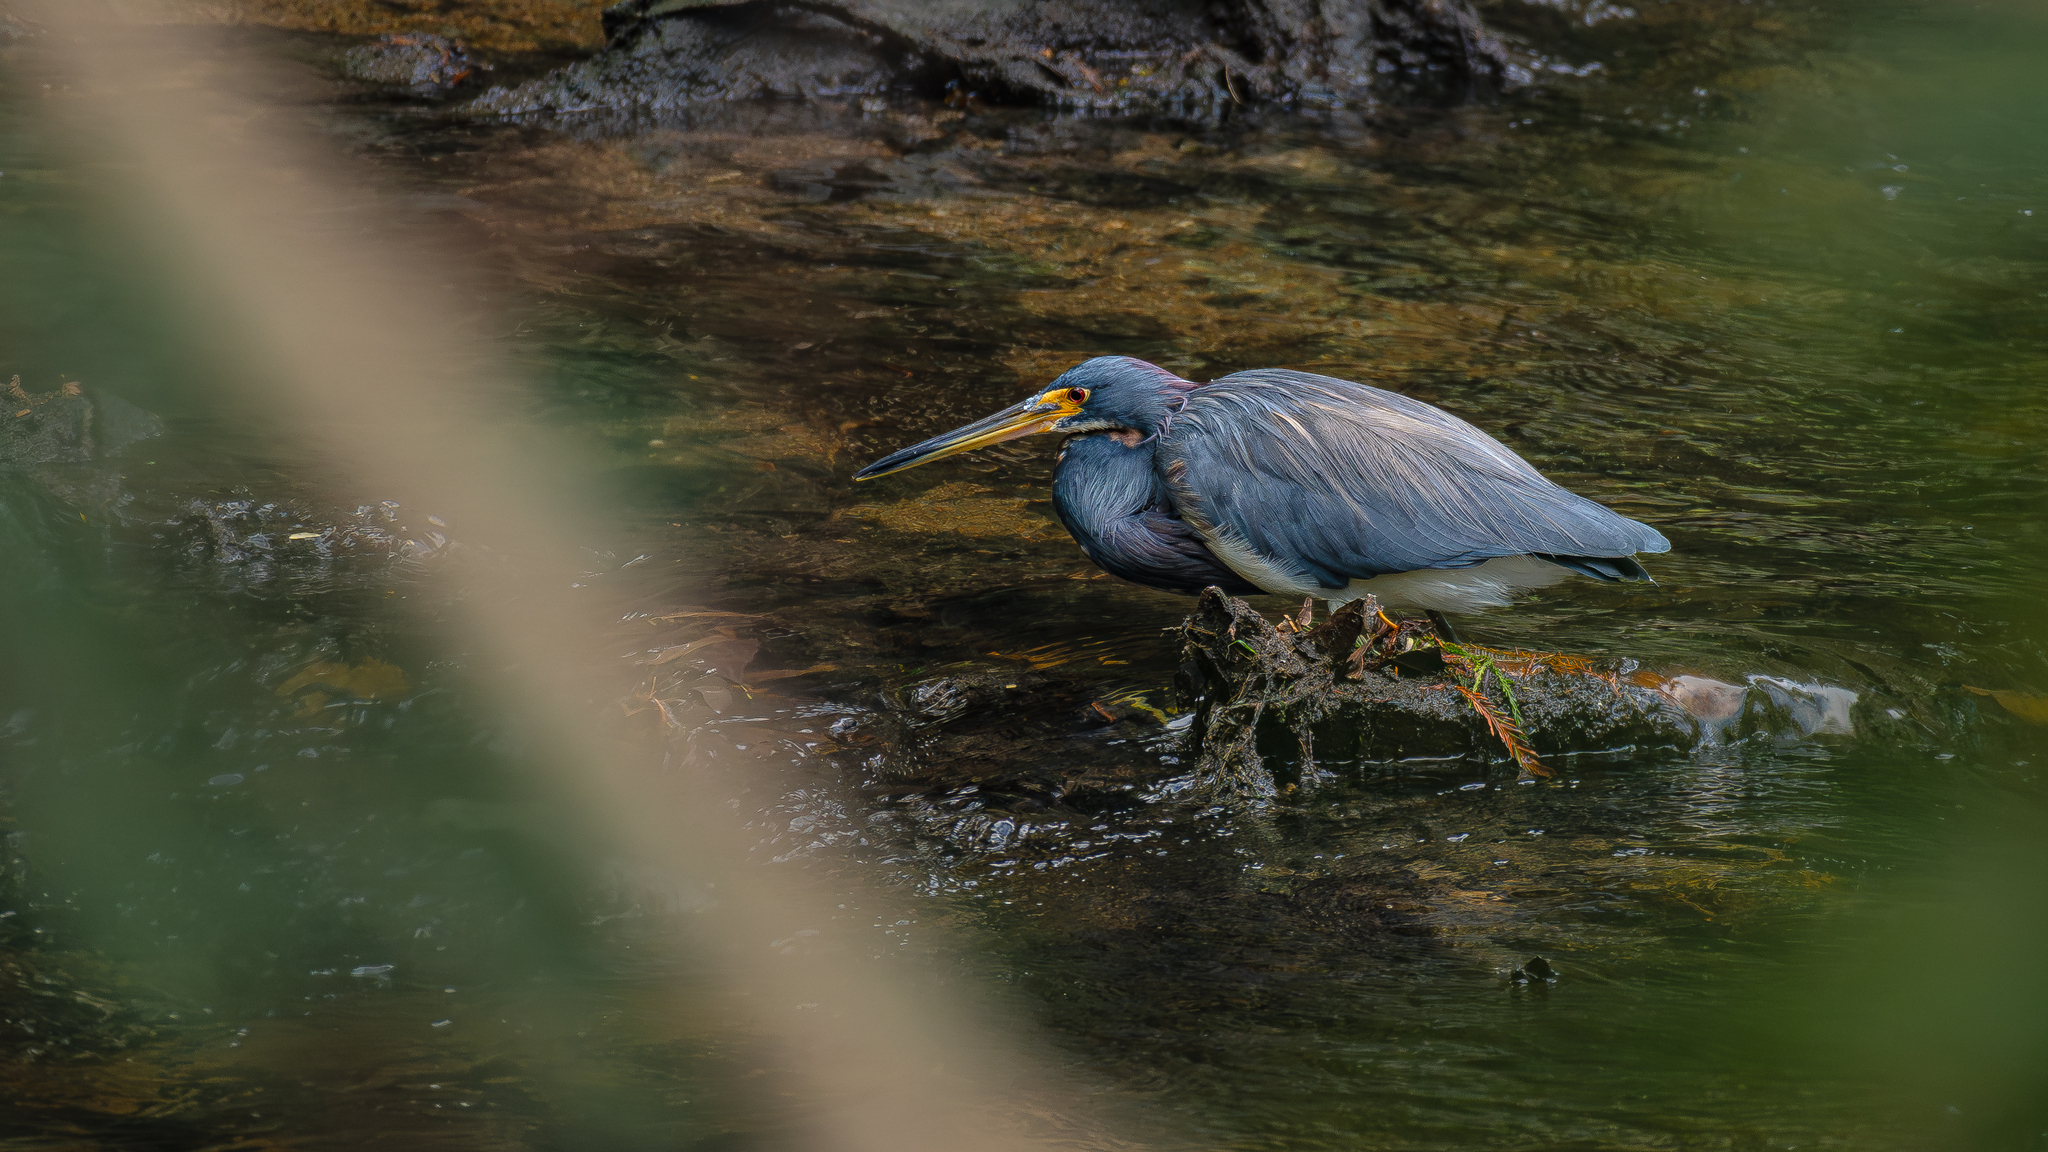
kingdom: Animalia
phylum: Chordata
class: Aves
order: Pelecaniformes
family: Ardeidae
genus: Egretta
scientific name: Egretta tricolor
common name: Tricolored heron
